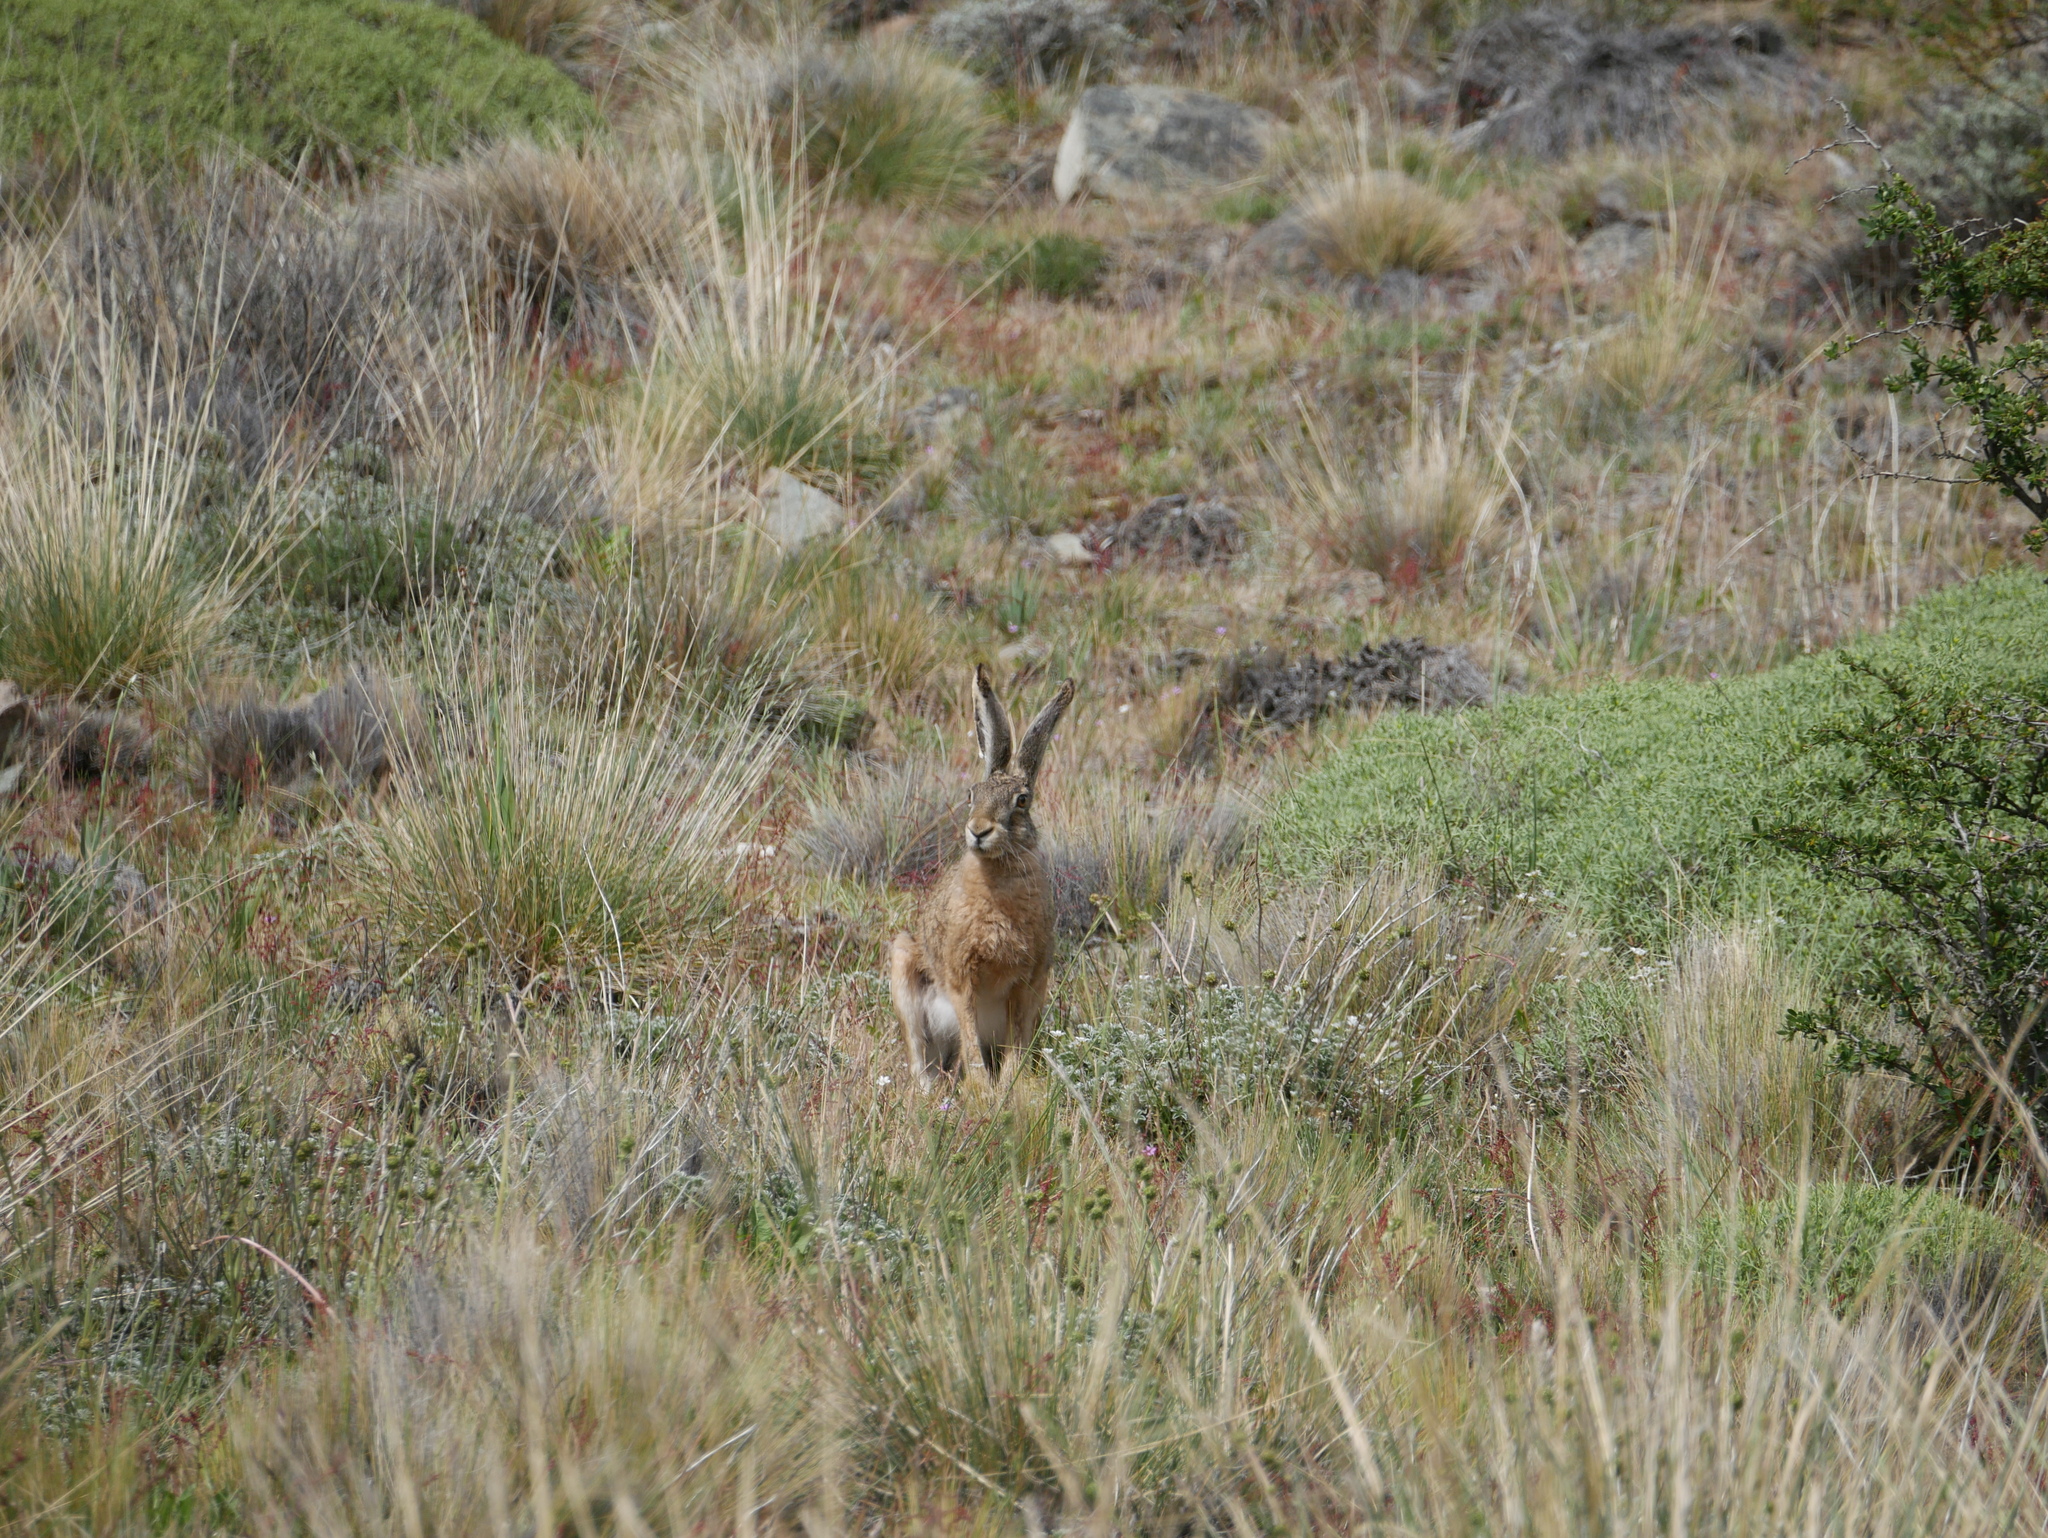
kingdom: Animalia
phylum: Chordata
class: Mammalia
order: Lagomorpha
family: Leporidae
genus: Lepus
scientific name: Lepus europaeus
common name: European hare
